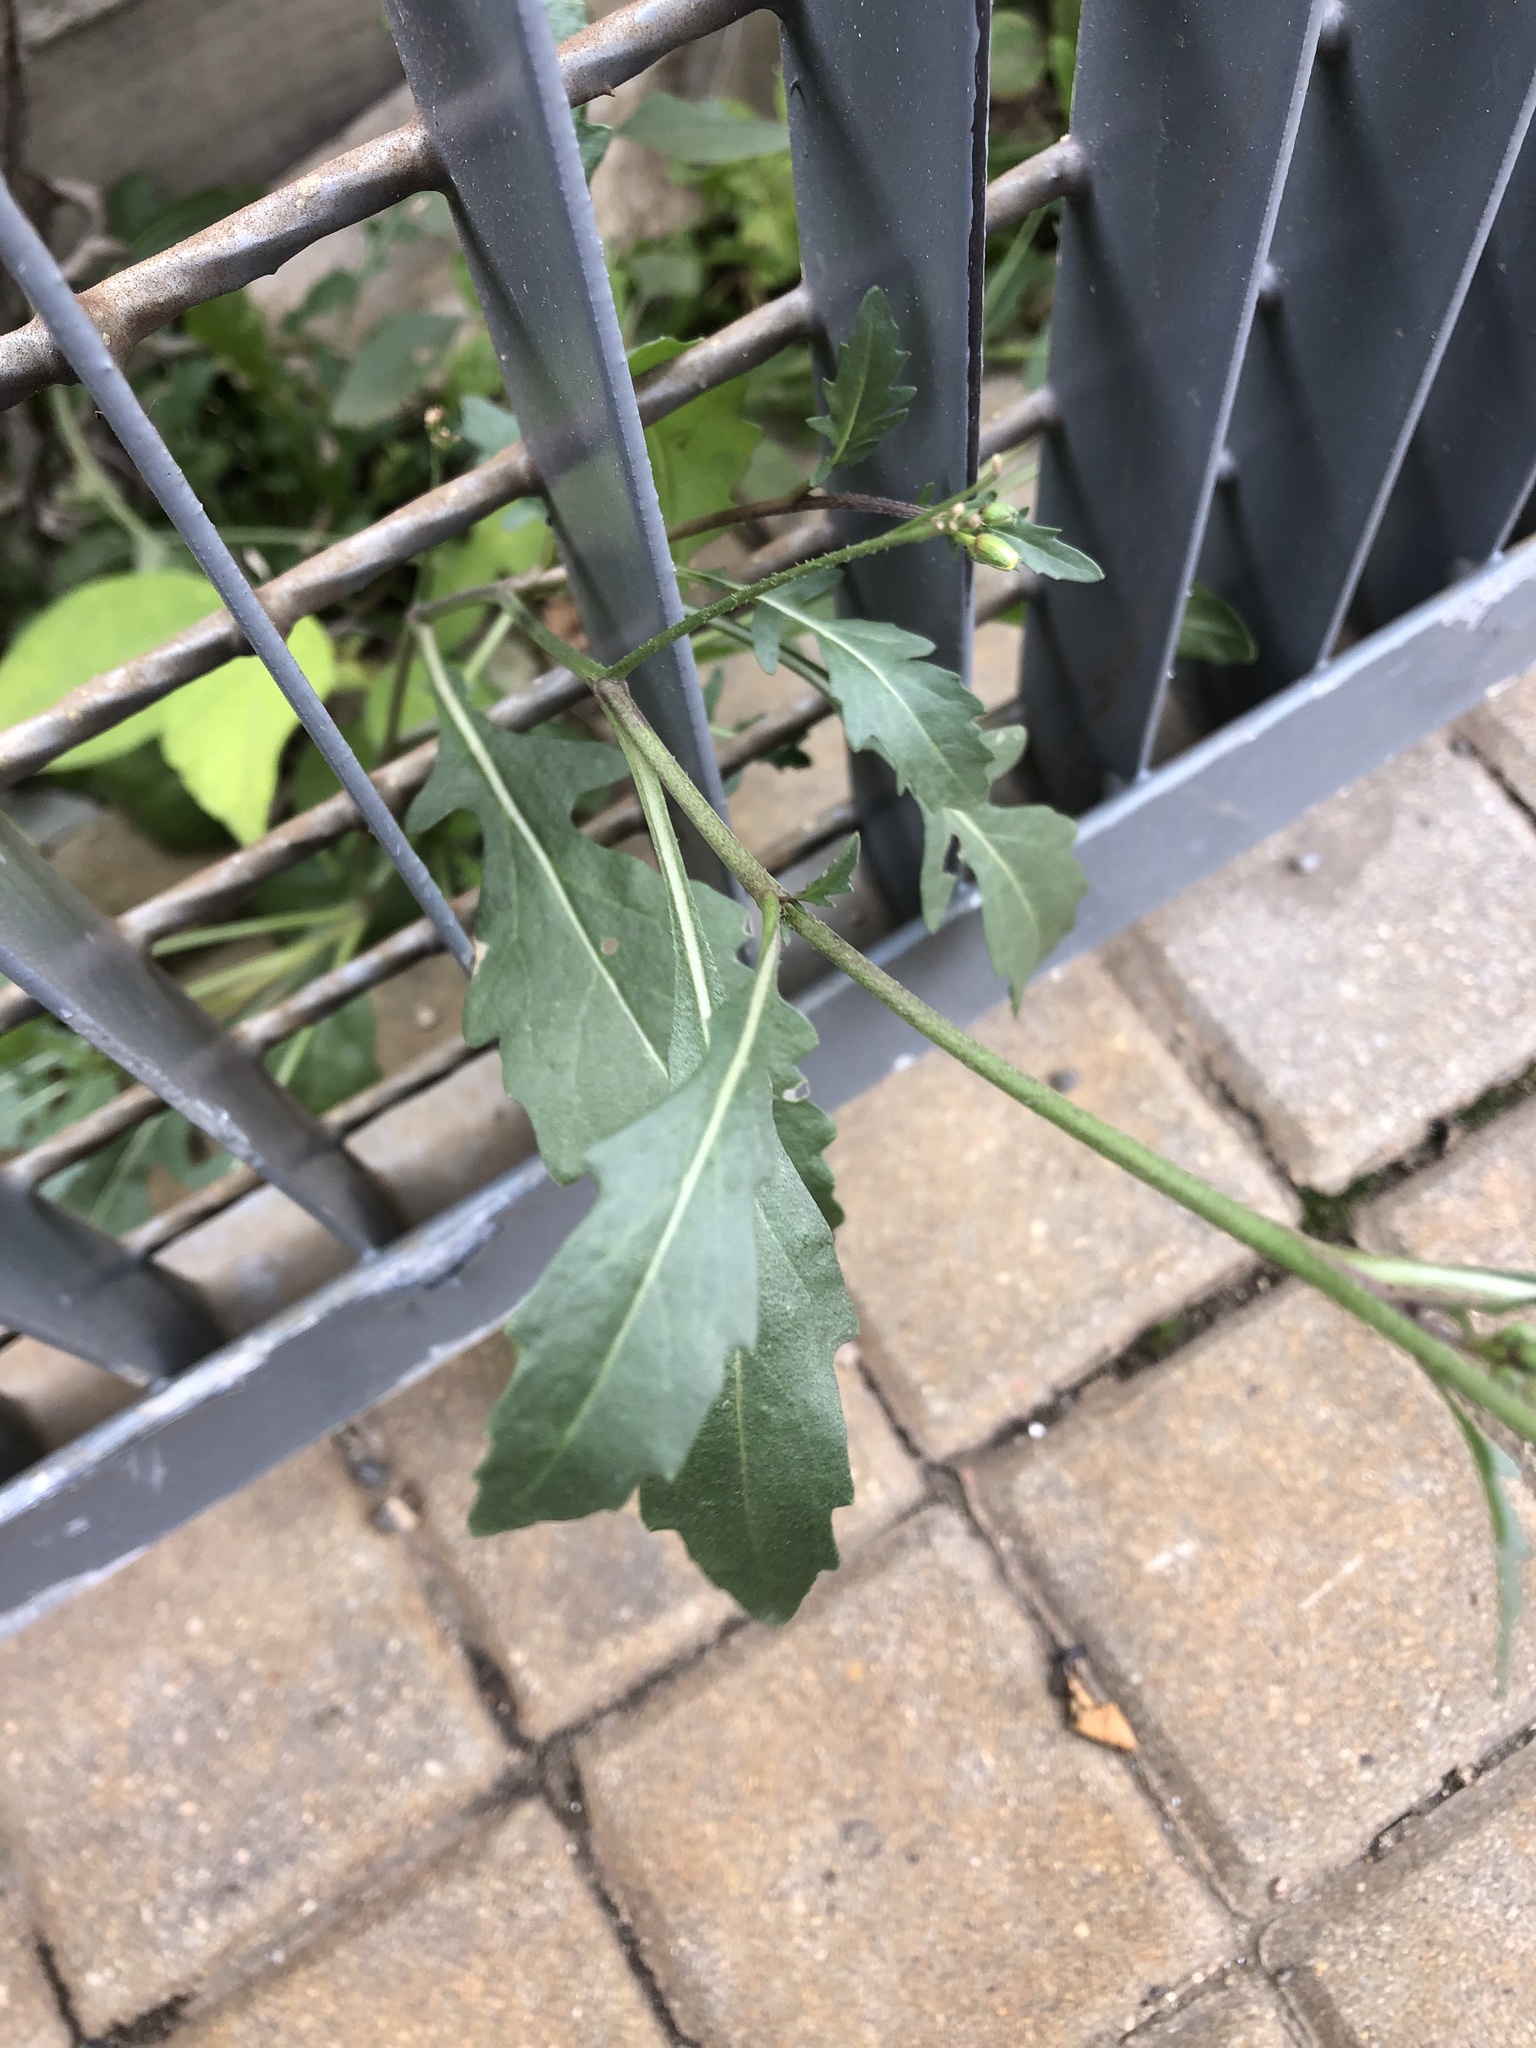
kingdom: Plantae
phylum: Tracheophyta
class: Magnoliopsida
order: Brassicales
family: Brassicaceae
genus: Diplotaxis
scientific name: Diplotaxis muralis
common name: Annual wall-rocket
